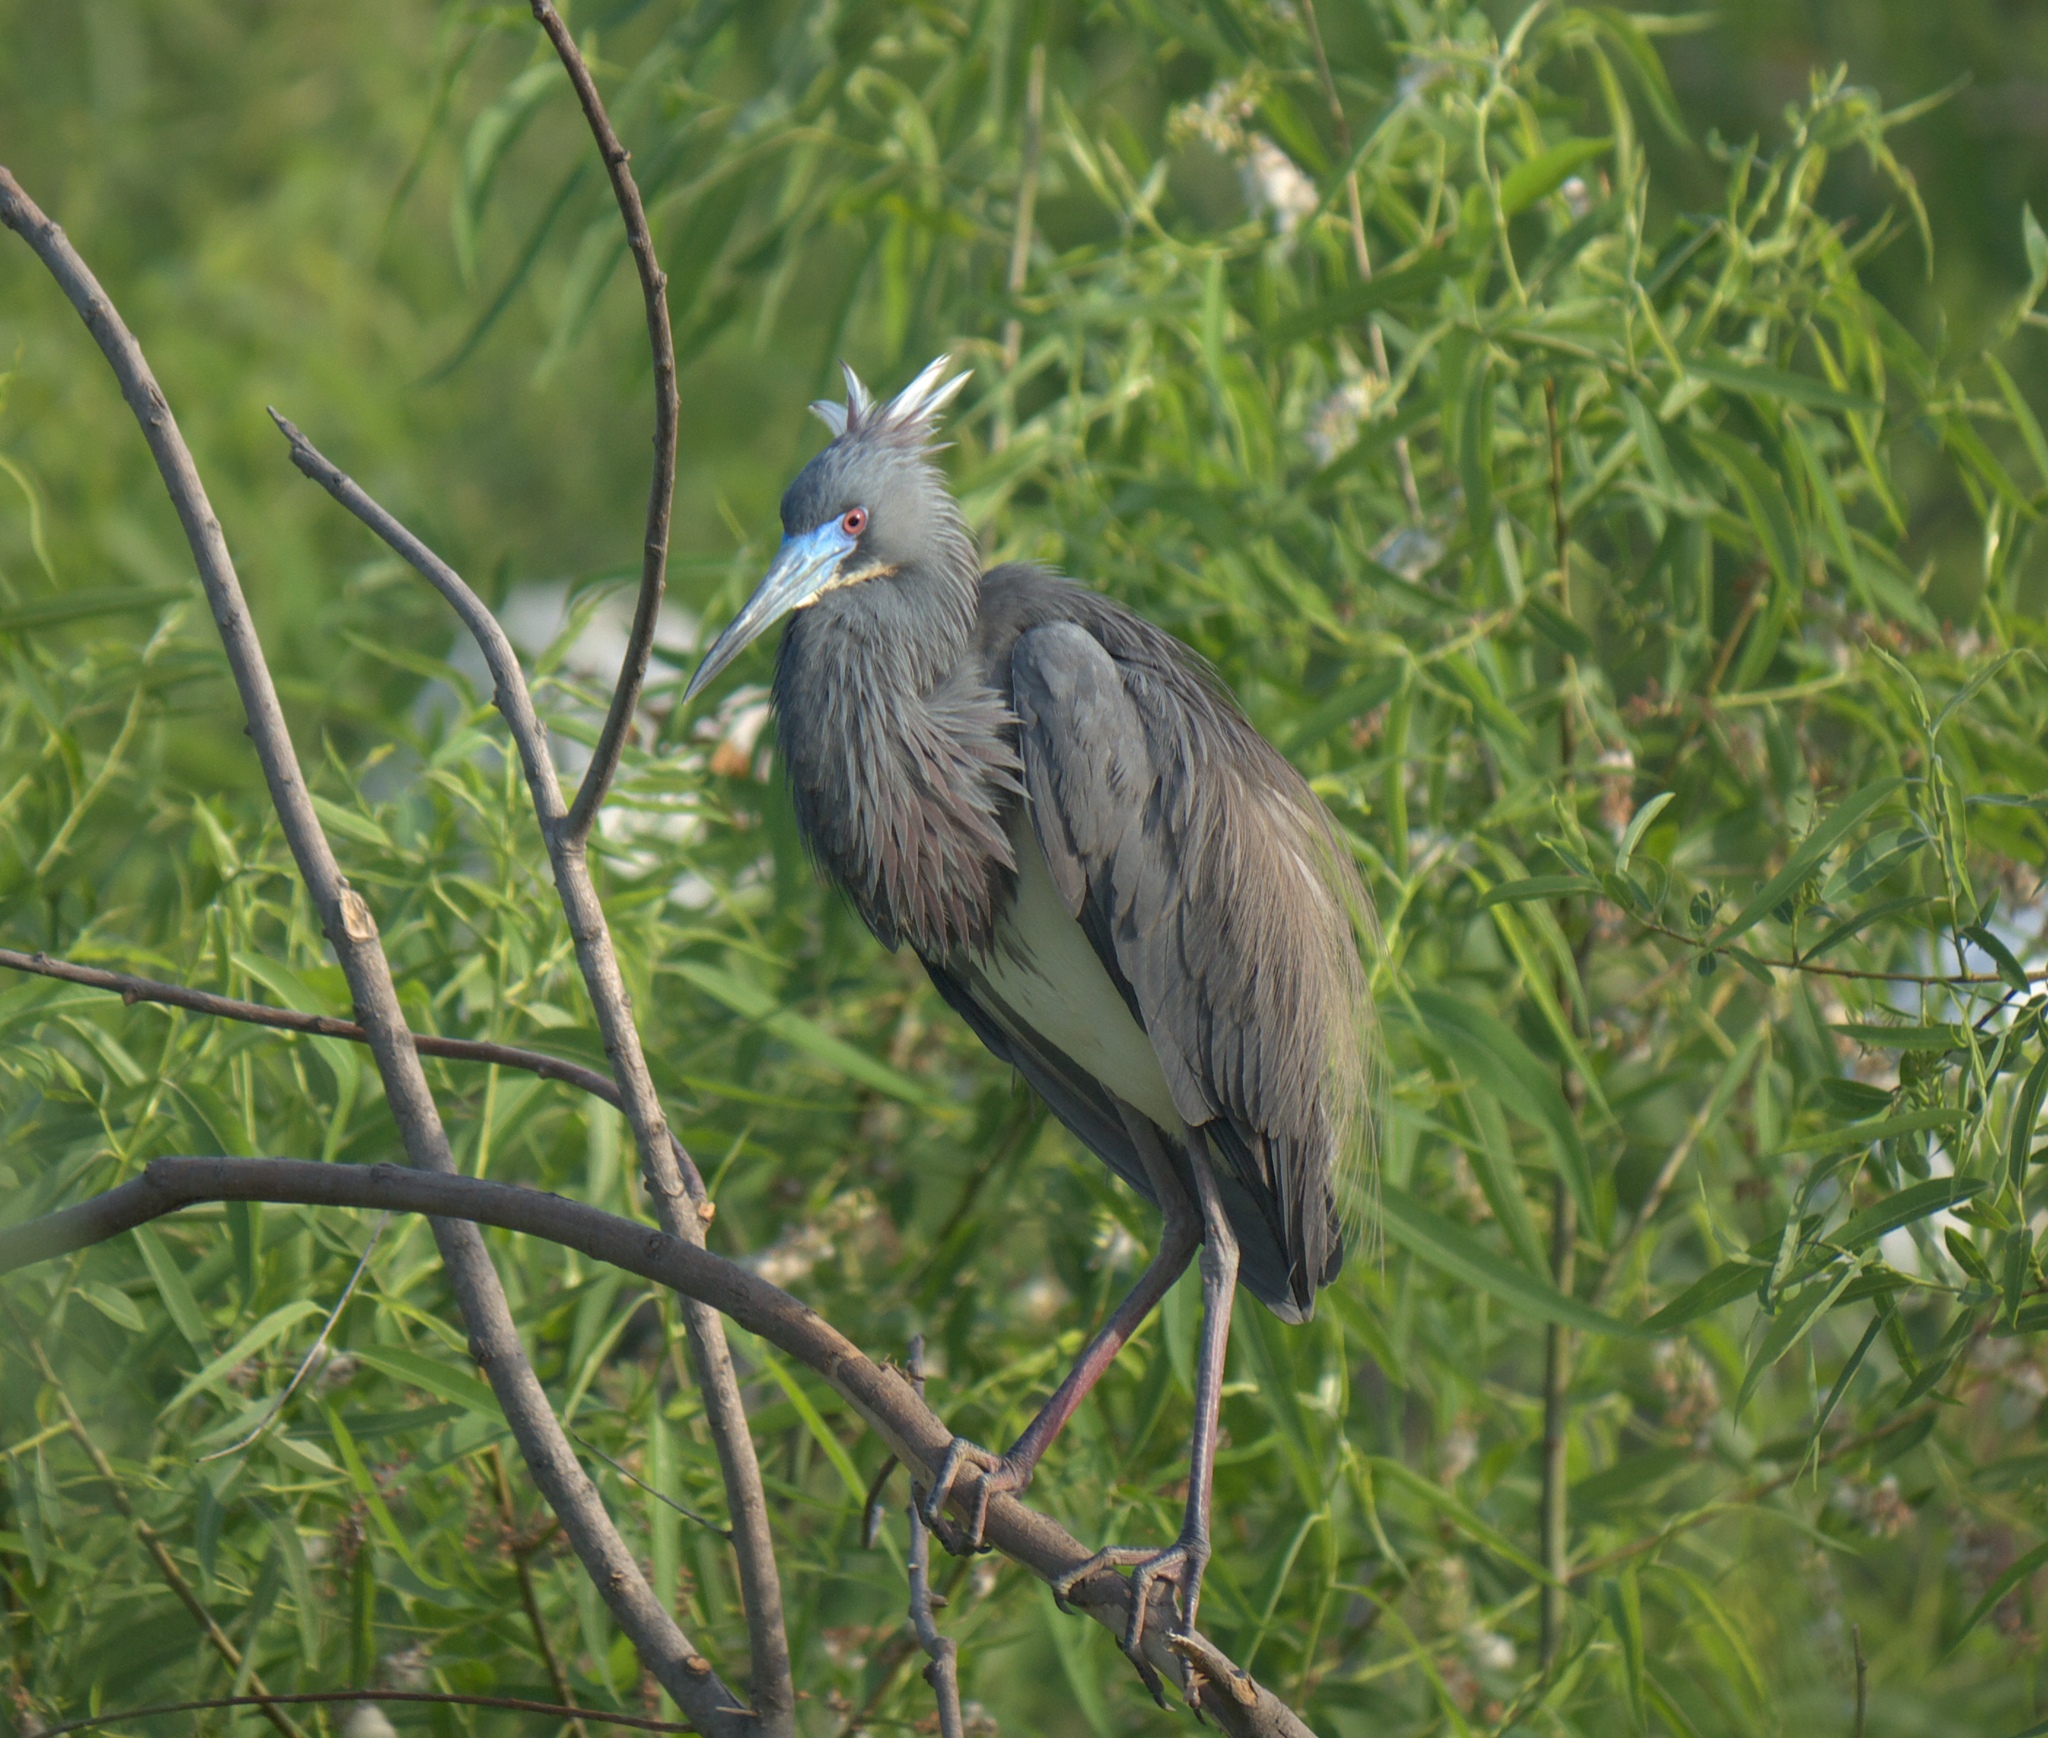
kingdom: Animalia
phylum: Chordata
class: Aves
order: Pelecaniformes
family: Ardeidae
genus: Egretta
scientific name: Egretta tricolor
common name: Tricolored heron
